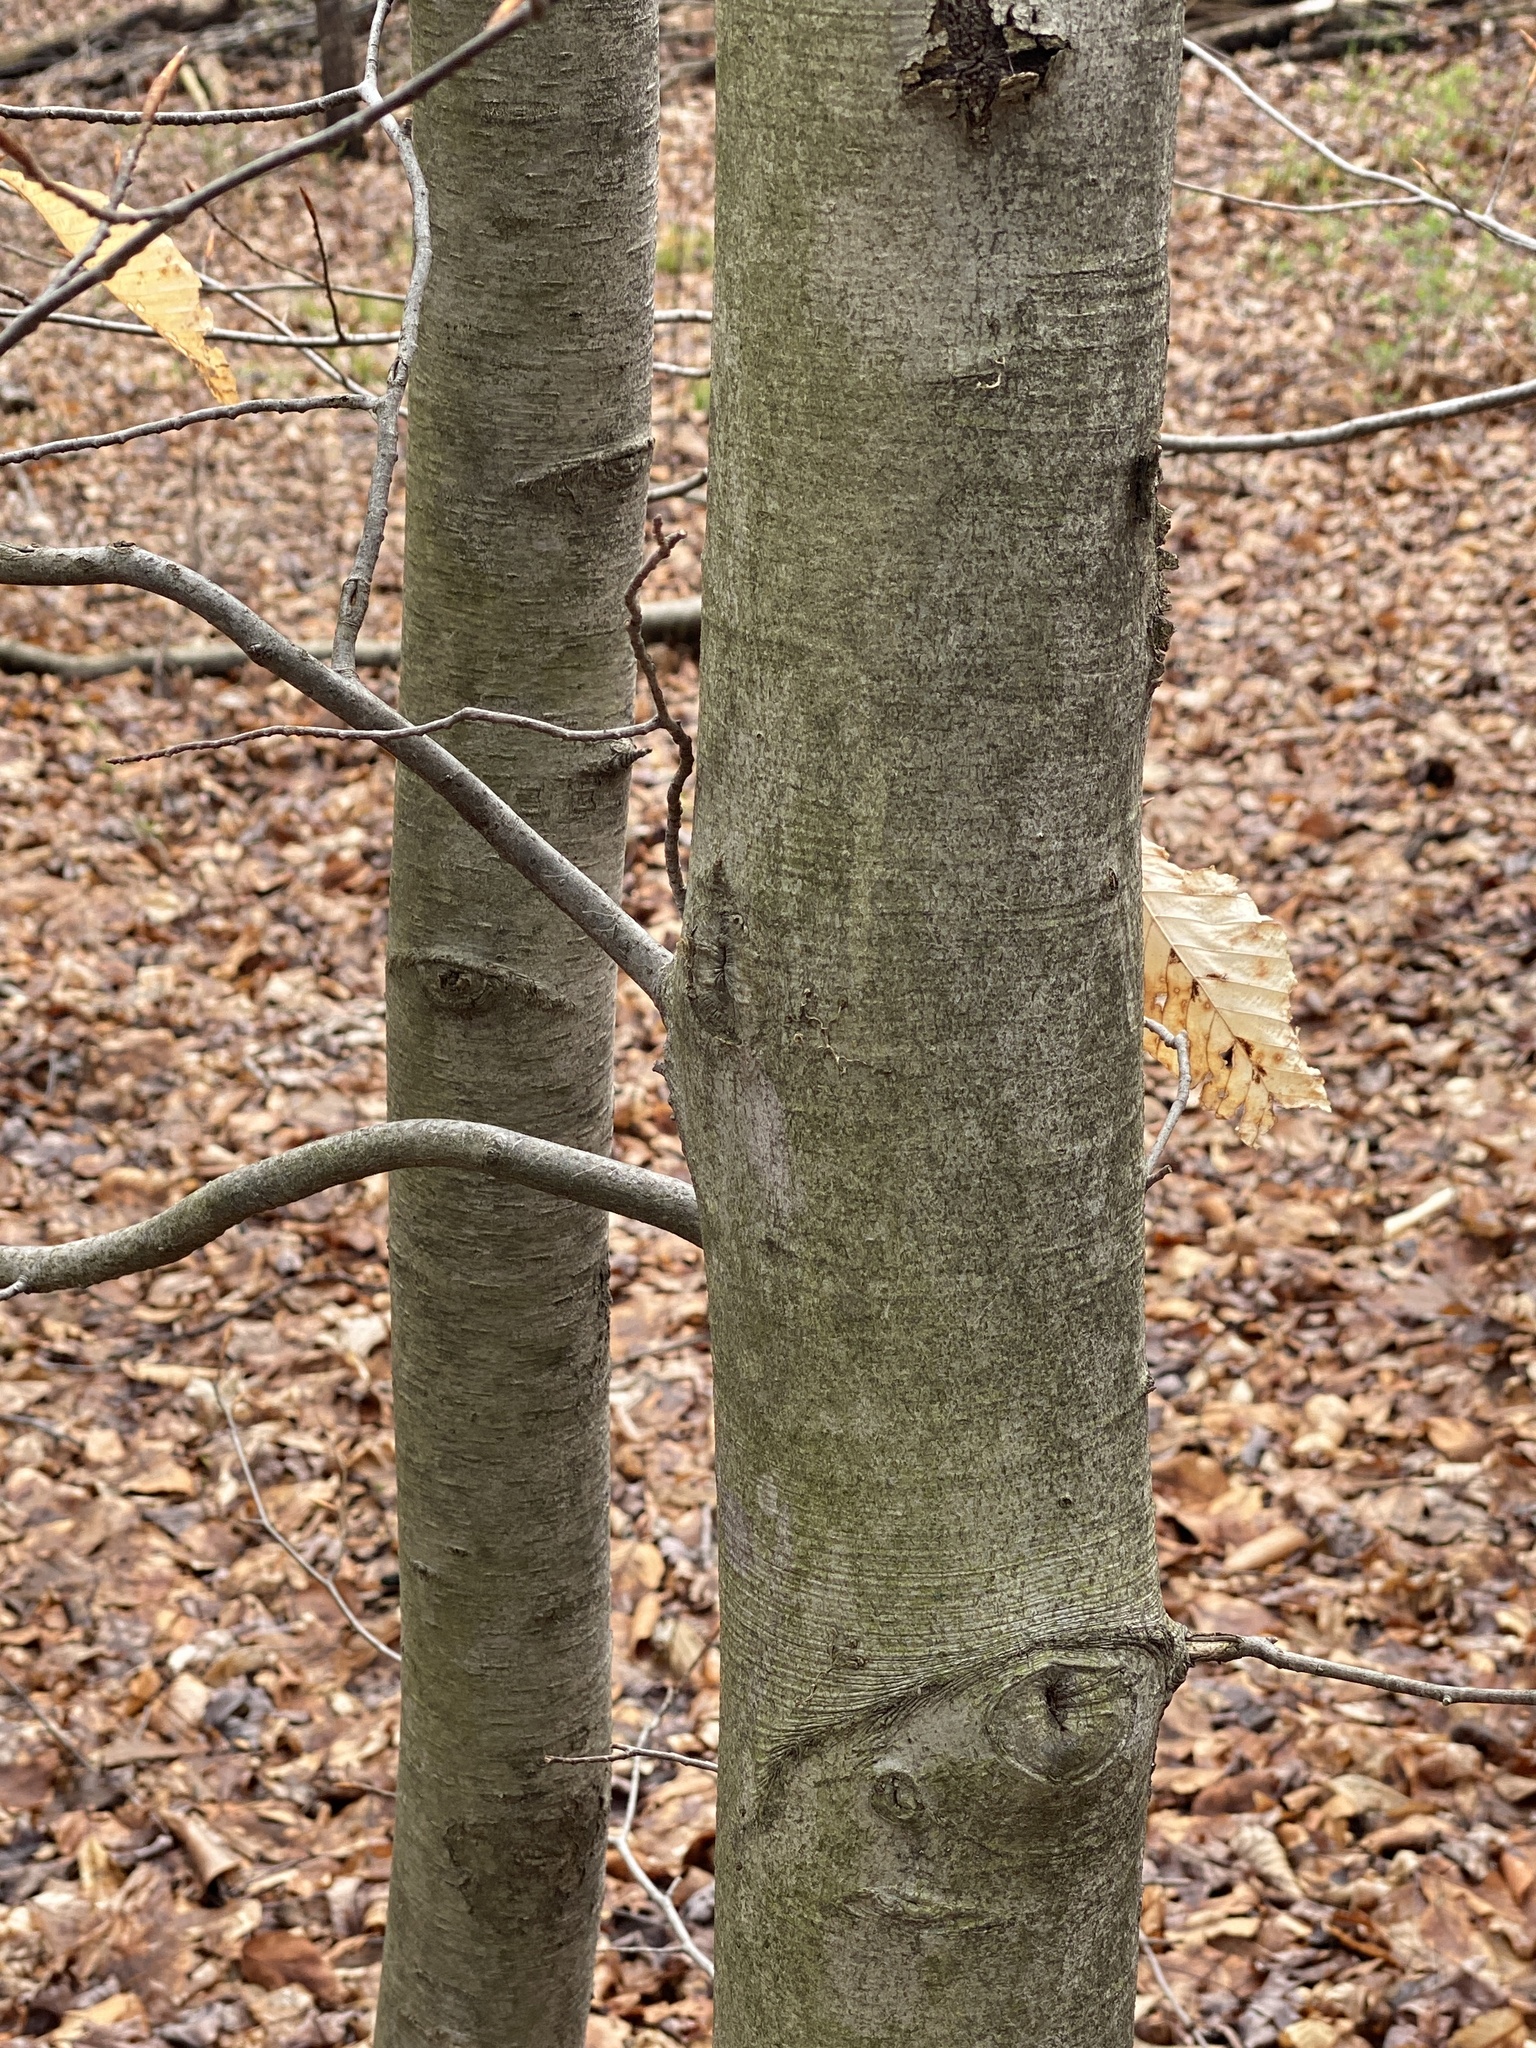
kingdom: Plantae
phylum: Tracheophyta
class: Magnoliopsida
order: Fagales
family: Fagaceae
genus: Fagus
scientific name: Fagus grandifolia
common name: American beech
